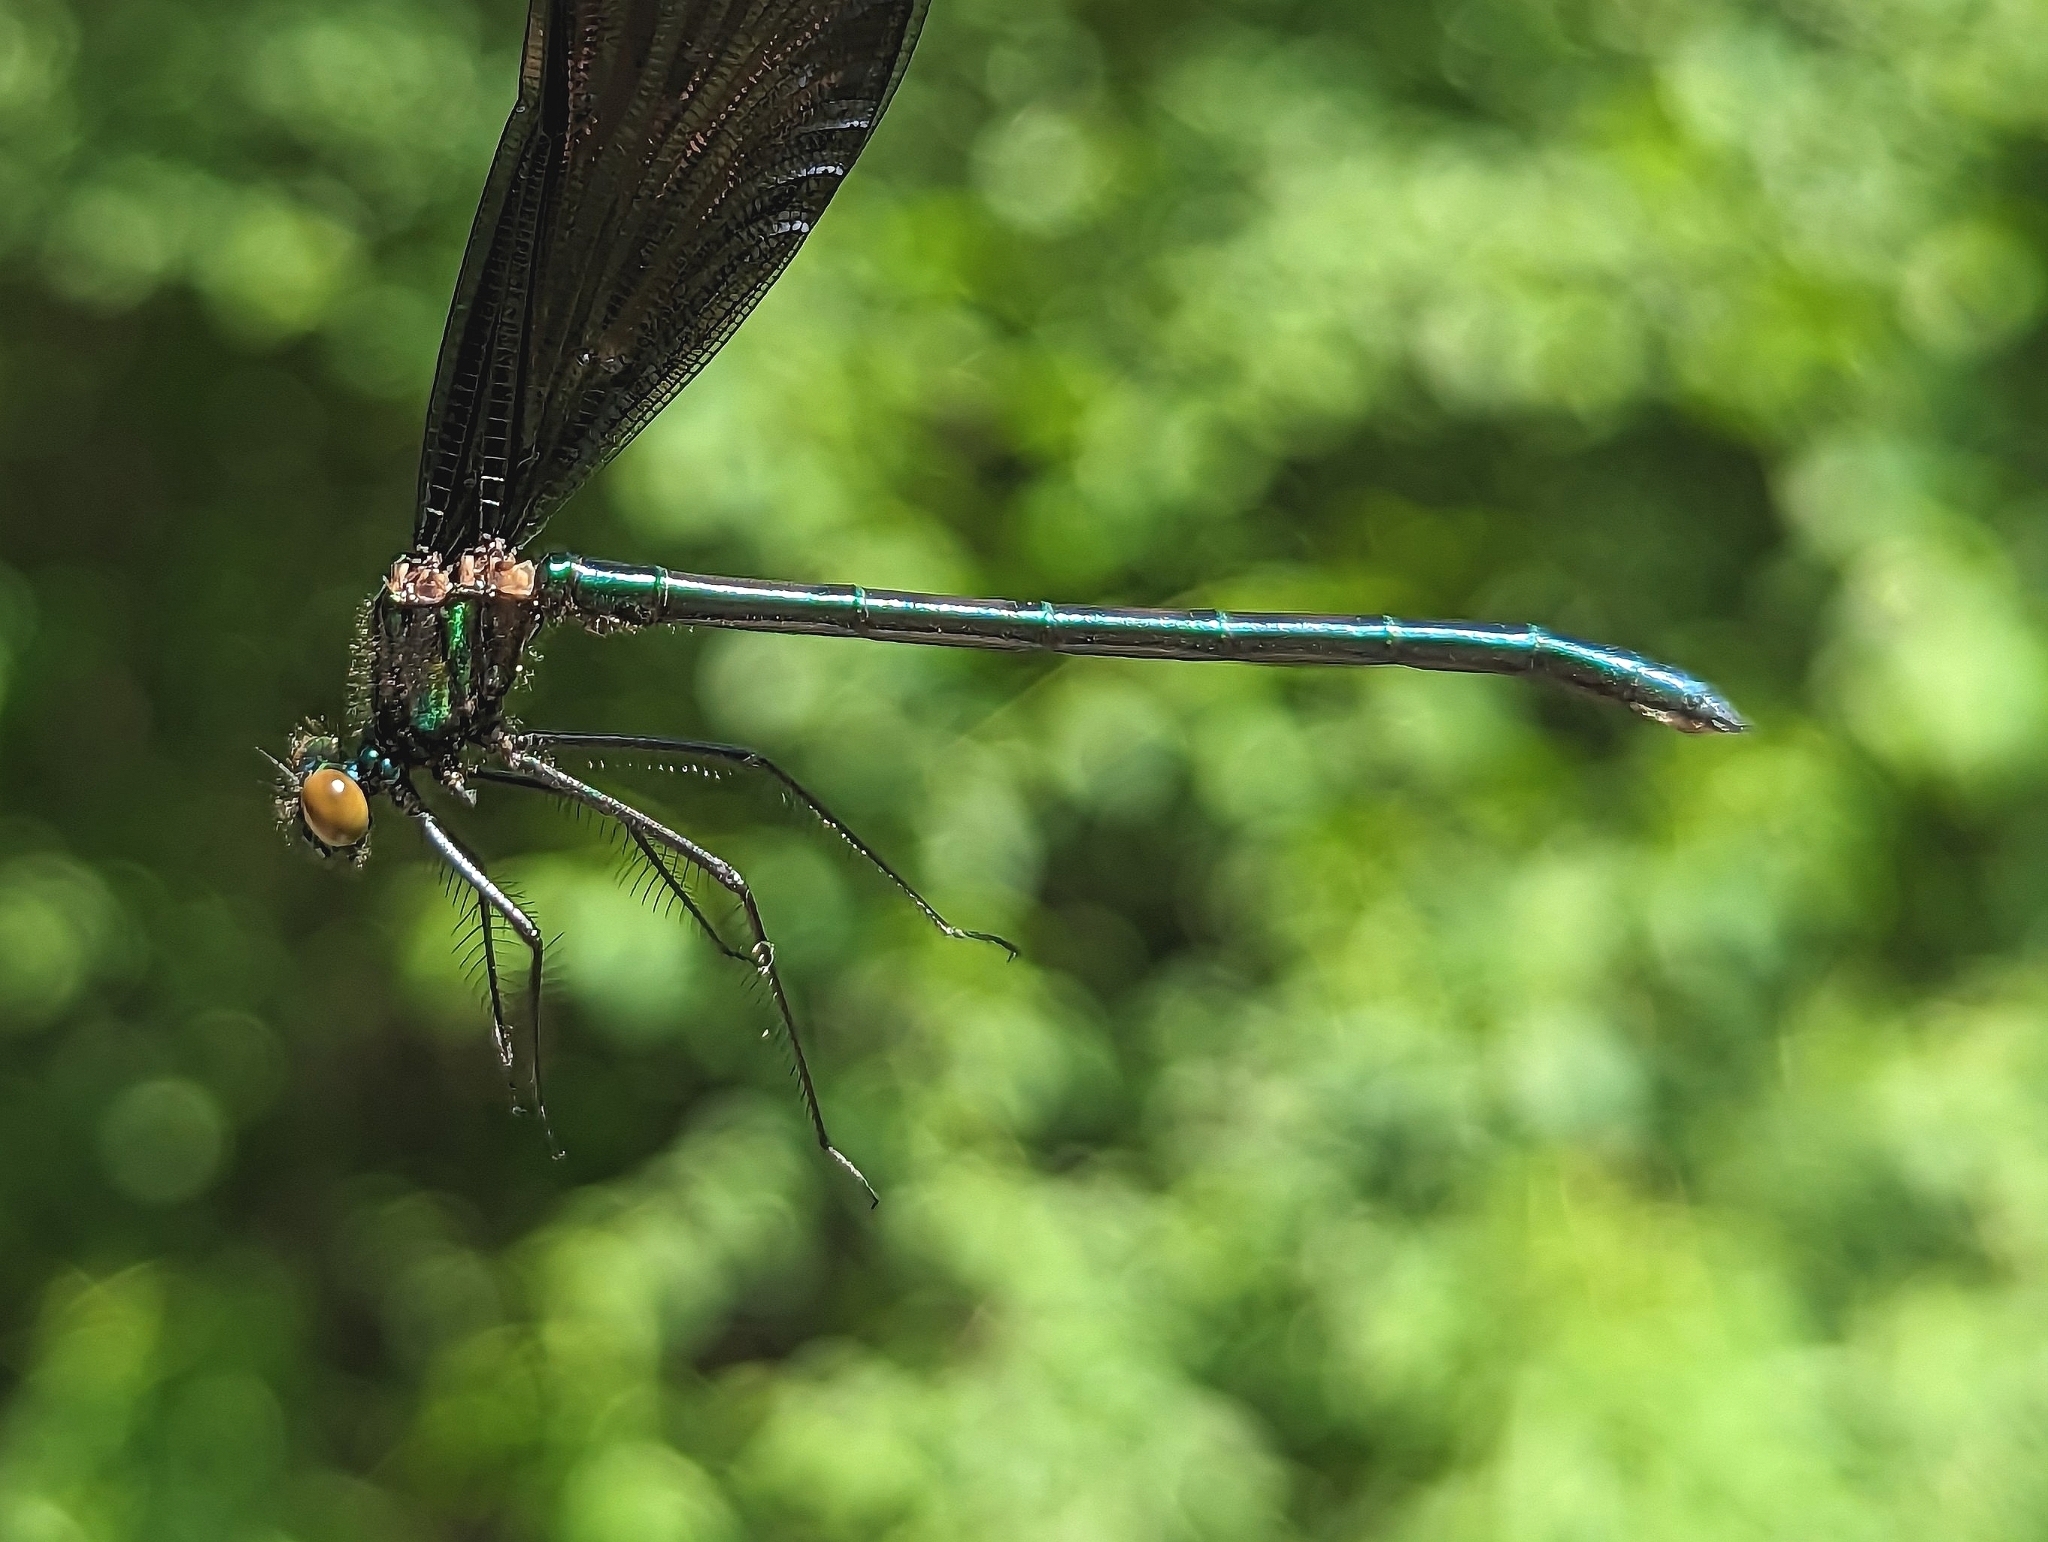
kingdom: Animalia
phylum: Arthropoda
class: Insecta
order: Odonata
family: Calopterygidae
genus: Calopteryx
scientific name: Calopteryx maculata
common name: Ebony jewelwing
